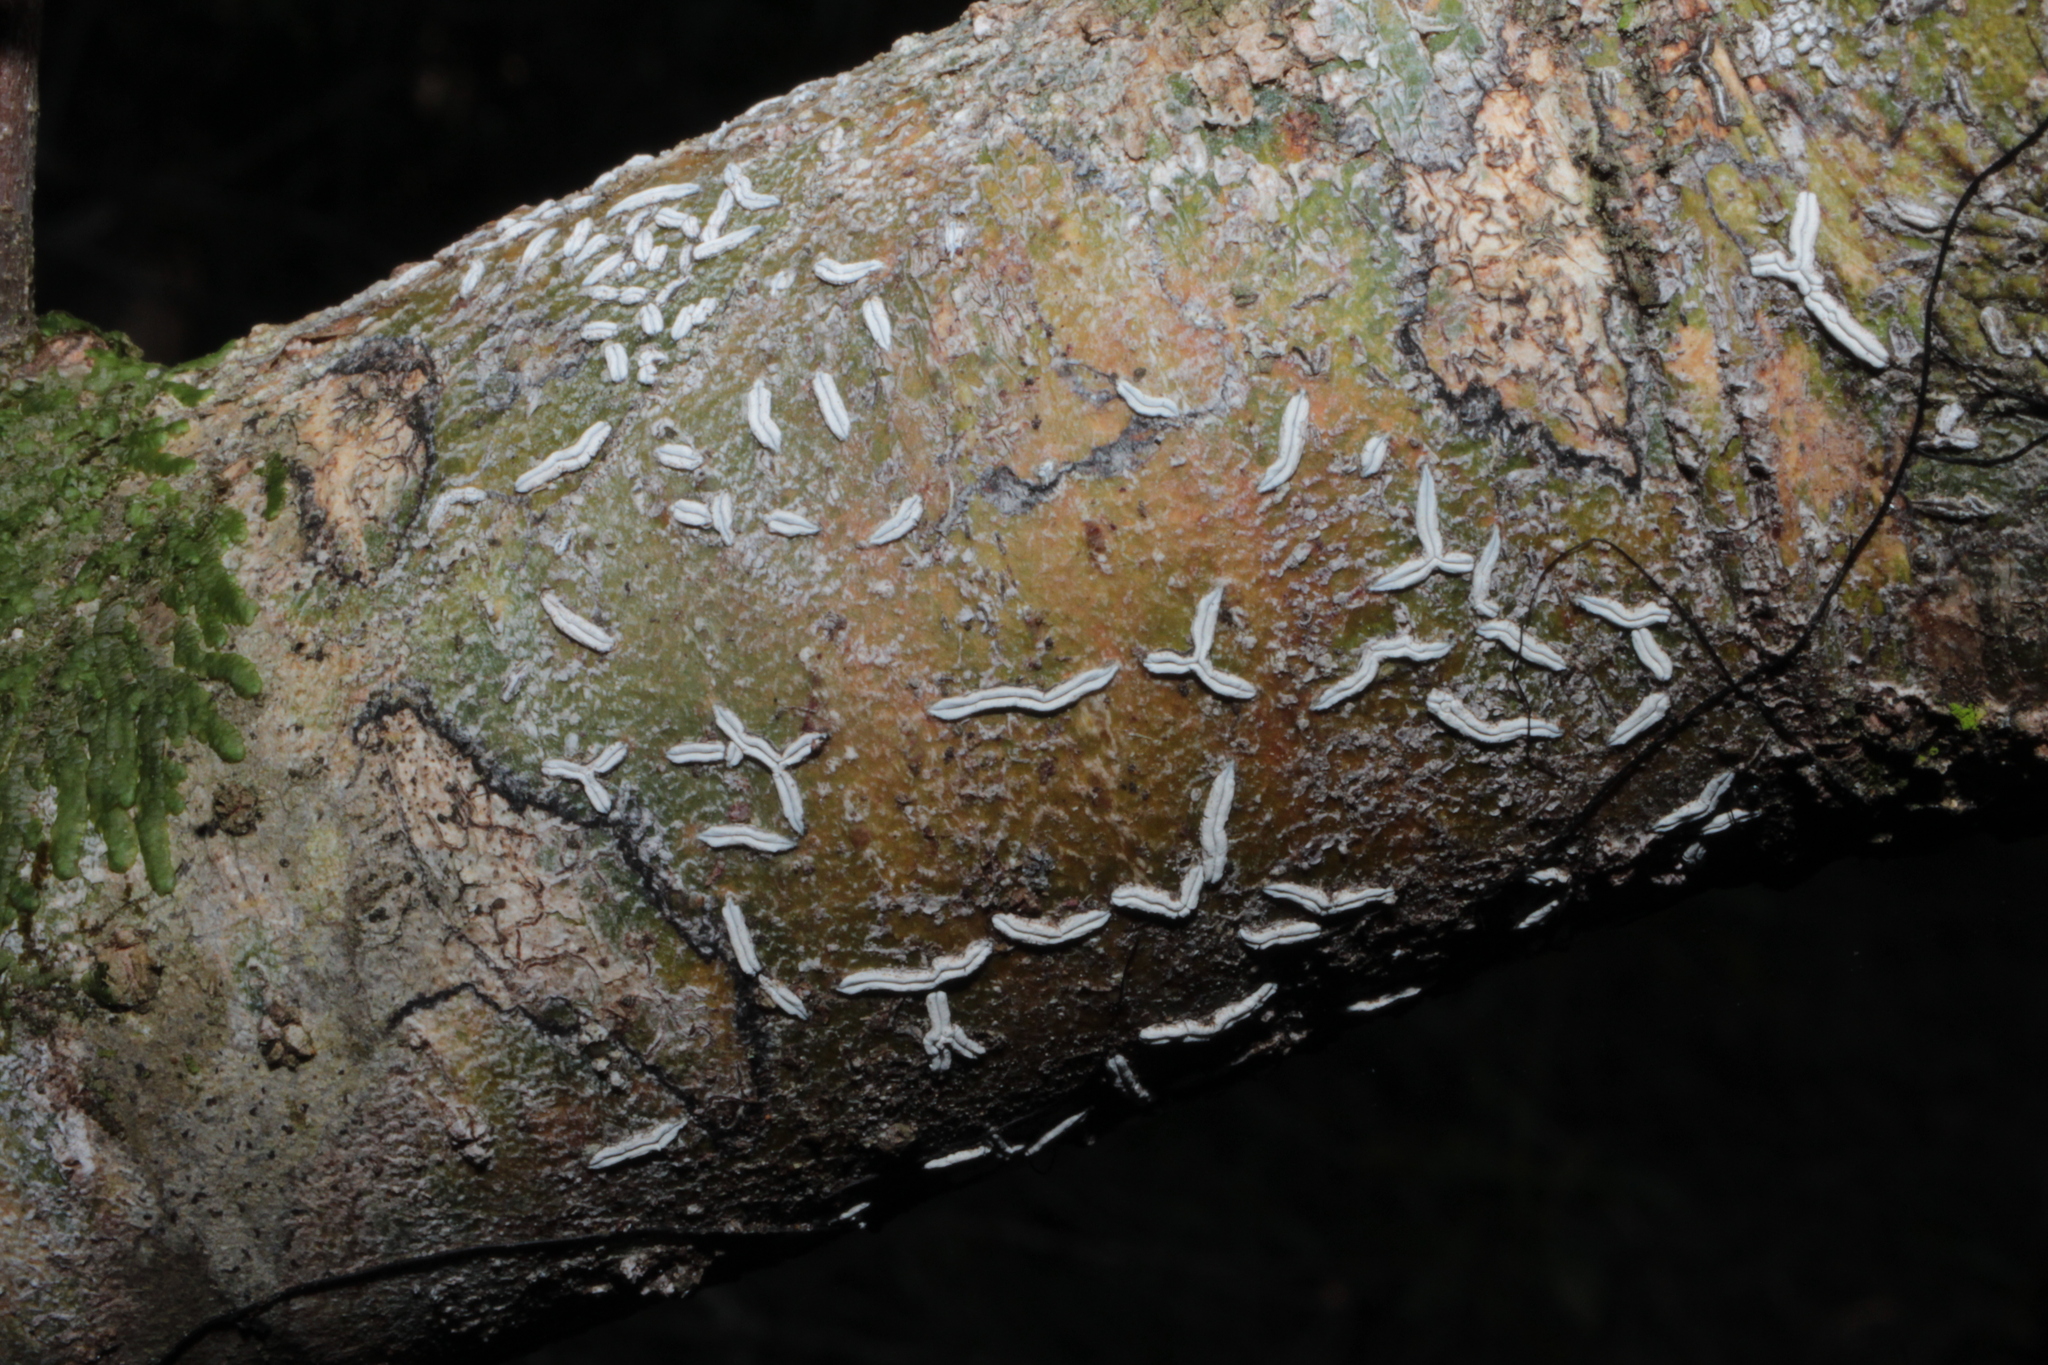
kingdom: Fungi
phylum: Ascomycota
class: Lecanoromycetes
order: Ostropales
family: Graphidaceae
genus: Dyplolabia
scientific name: Dyplolabia afzelii
